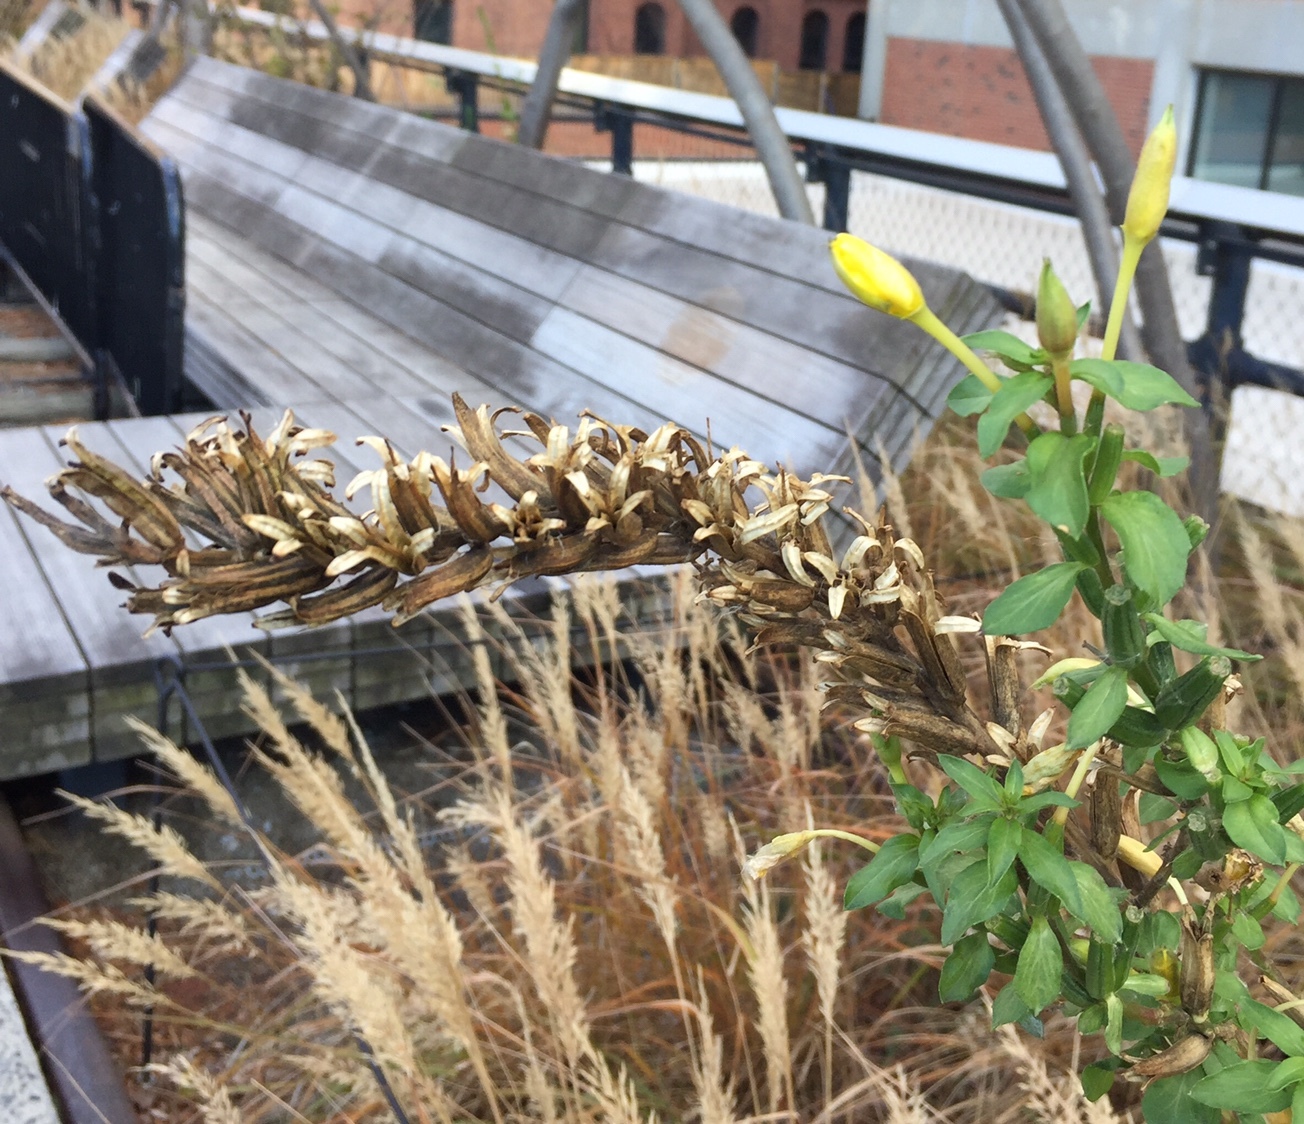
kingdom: Plantae
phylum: Tracheophyta
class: Magnoliopsida
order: Myrtales
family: Onagraceae
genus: Oenothera
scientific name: Oenothera biennis
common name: Common evening-primrose
